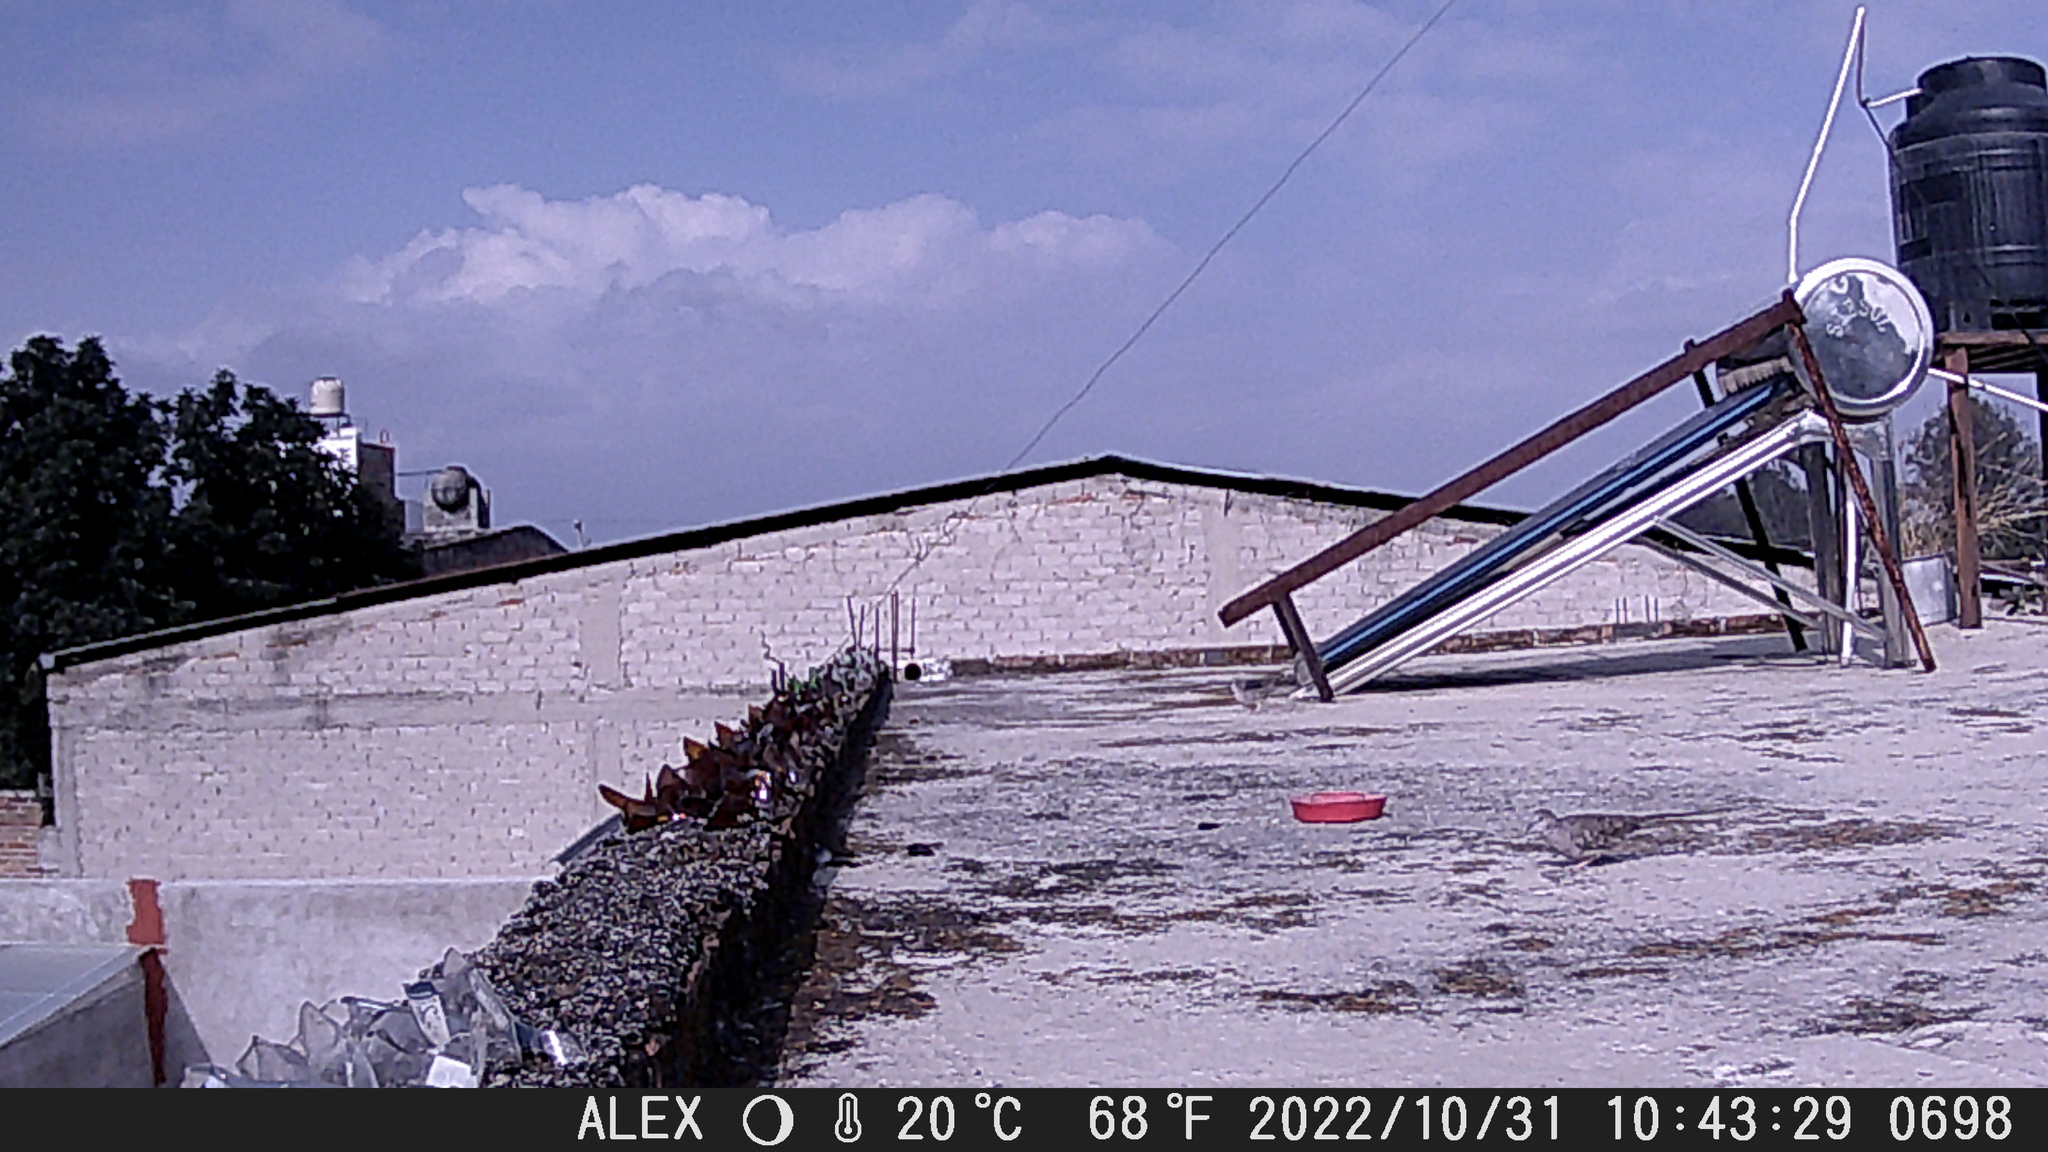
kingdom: Animalia
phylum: Chordata
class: Aves
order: Columbiformes
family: Columbidae
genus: Columbina
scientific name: Columbina inca
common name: Inca dove
